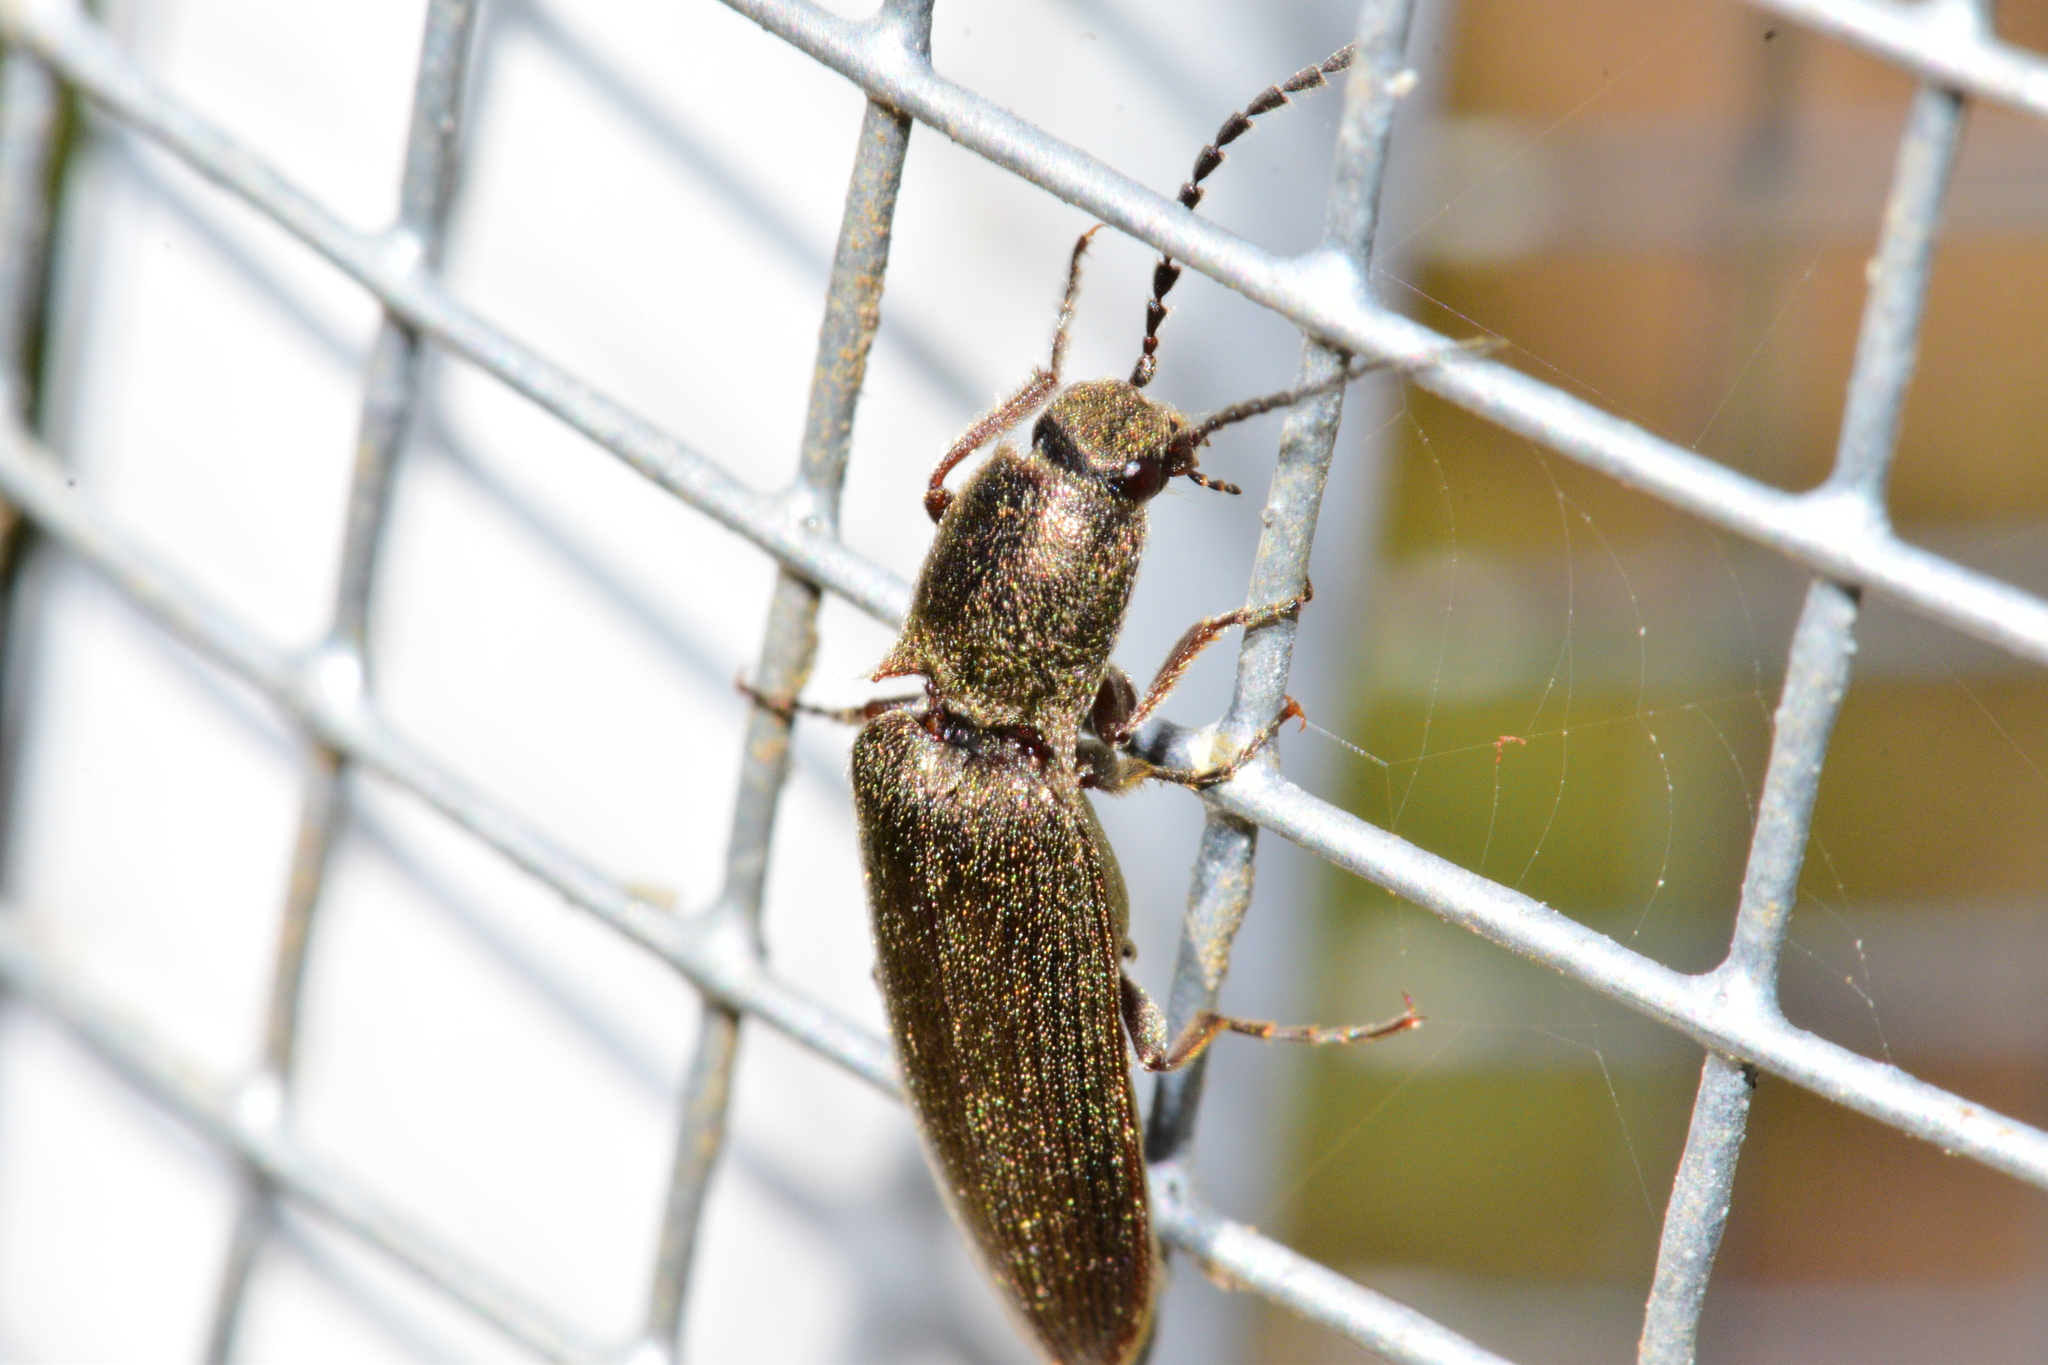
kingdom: Animalia
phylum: Arthropoda
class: Insecta
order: Coleoptera
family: Elateridae
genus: Sylvanelater
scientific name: Sylvanelater cylindriformis
